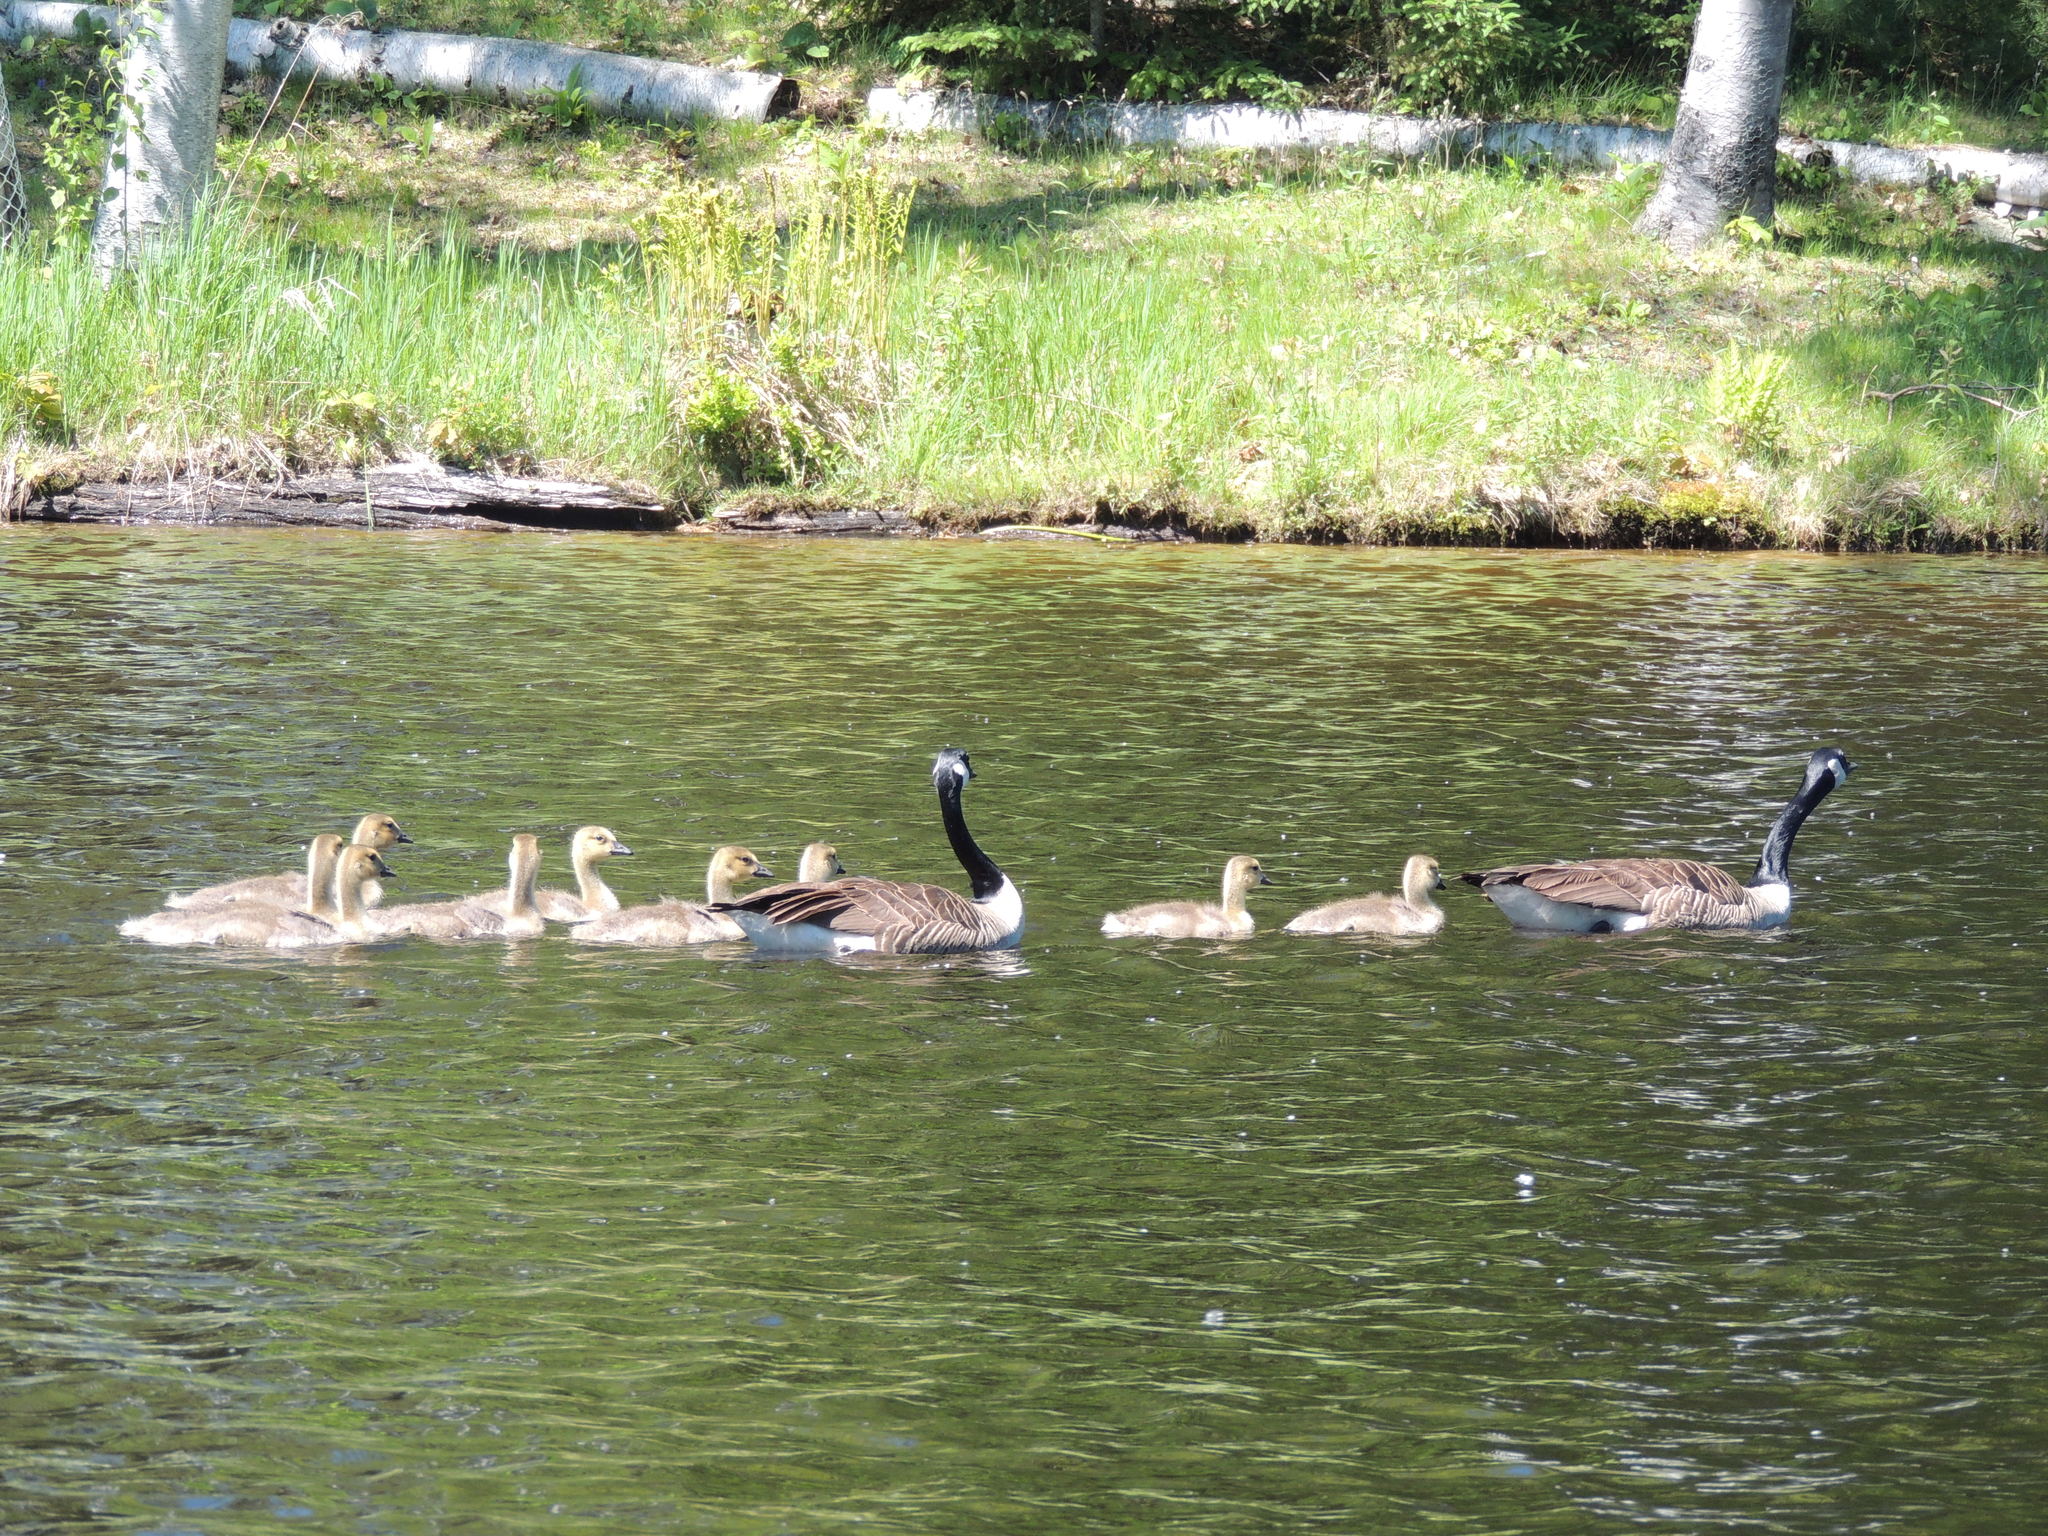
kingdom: Animalia
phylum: Chordata
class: Aves
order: Anseriformes
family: Anatidae
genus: Branta
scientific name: Branta canadensis
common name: Canada goose
